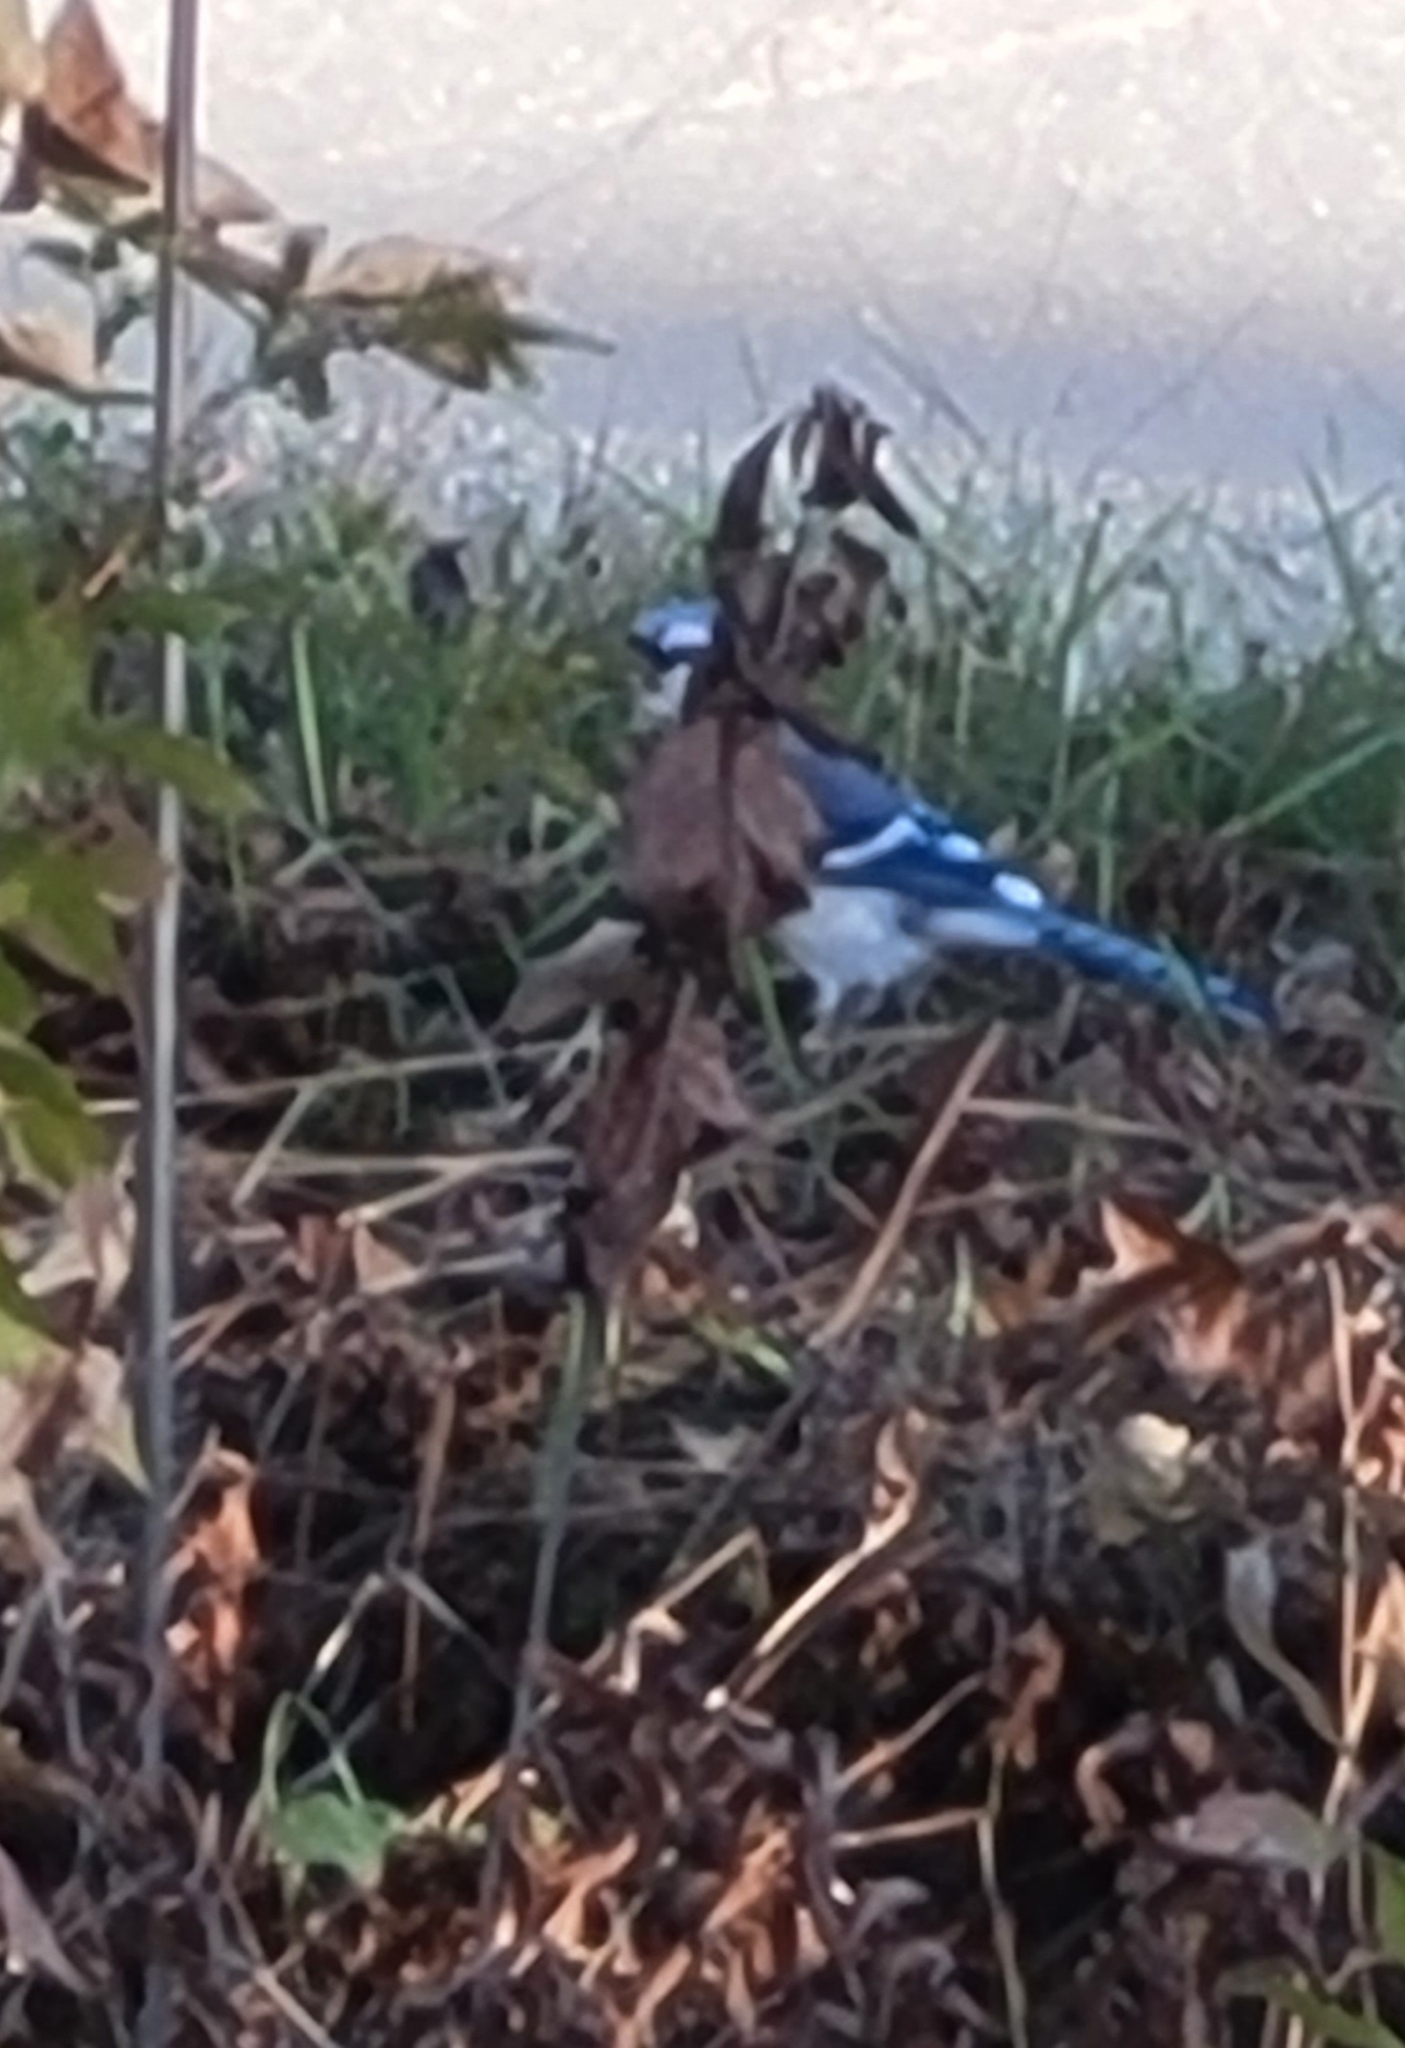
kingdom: Animalia
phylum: Chordata
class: Aves
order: Passeriformes
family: Corvidae
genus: Cyanocitta
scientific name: Cyanocitta cristata
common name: Blue jay
